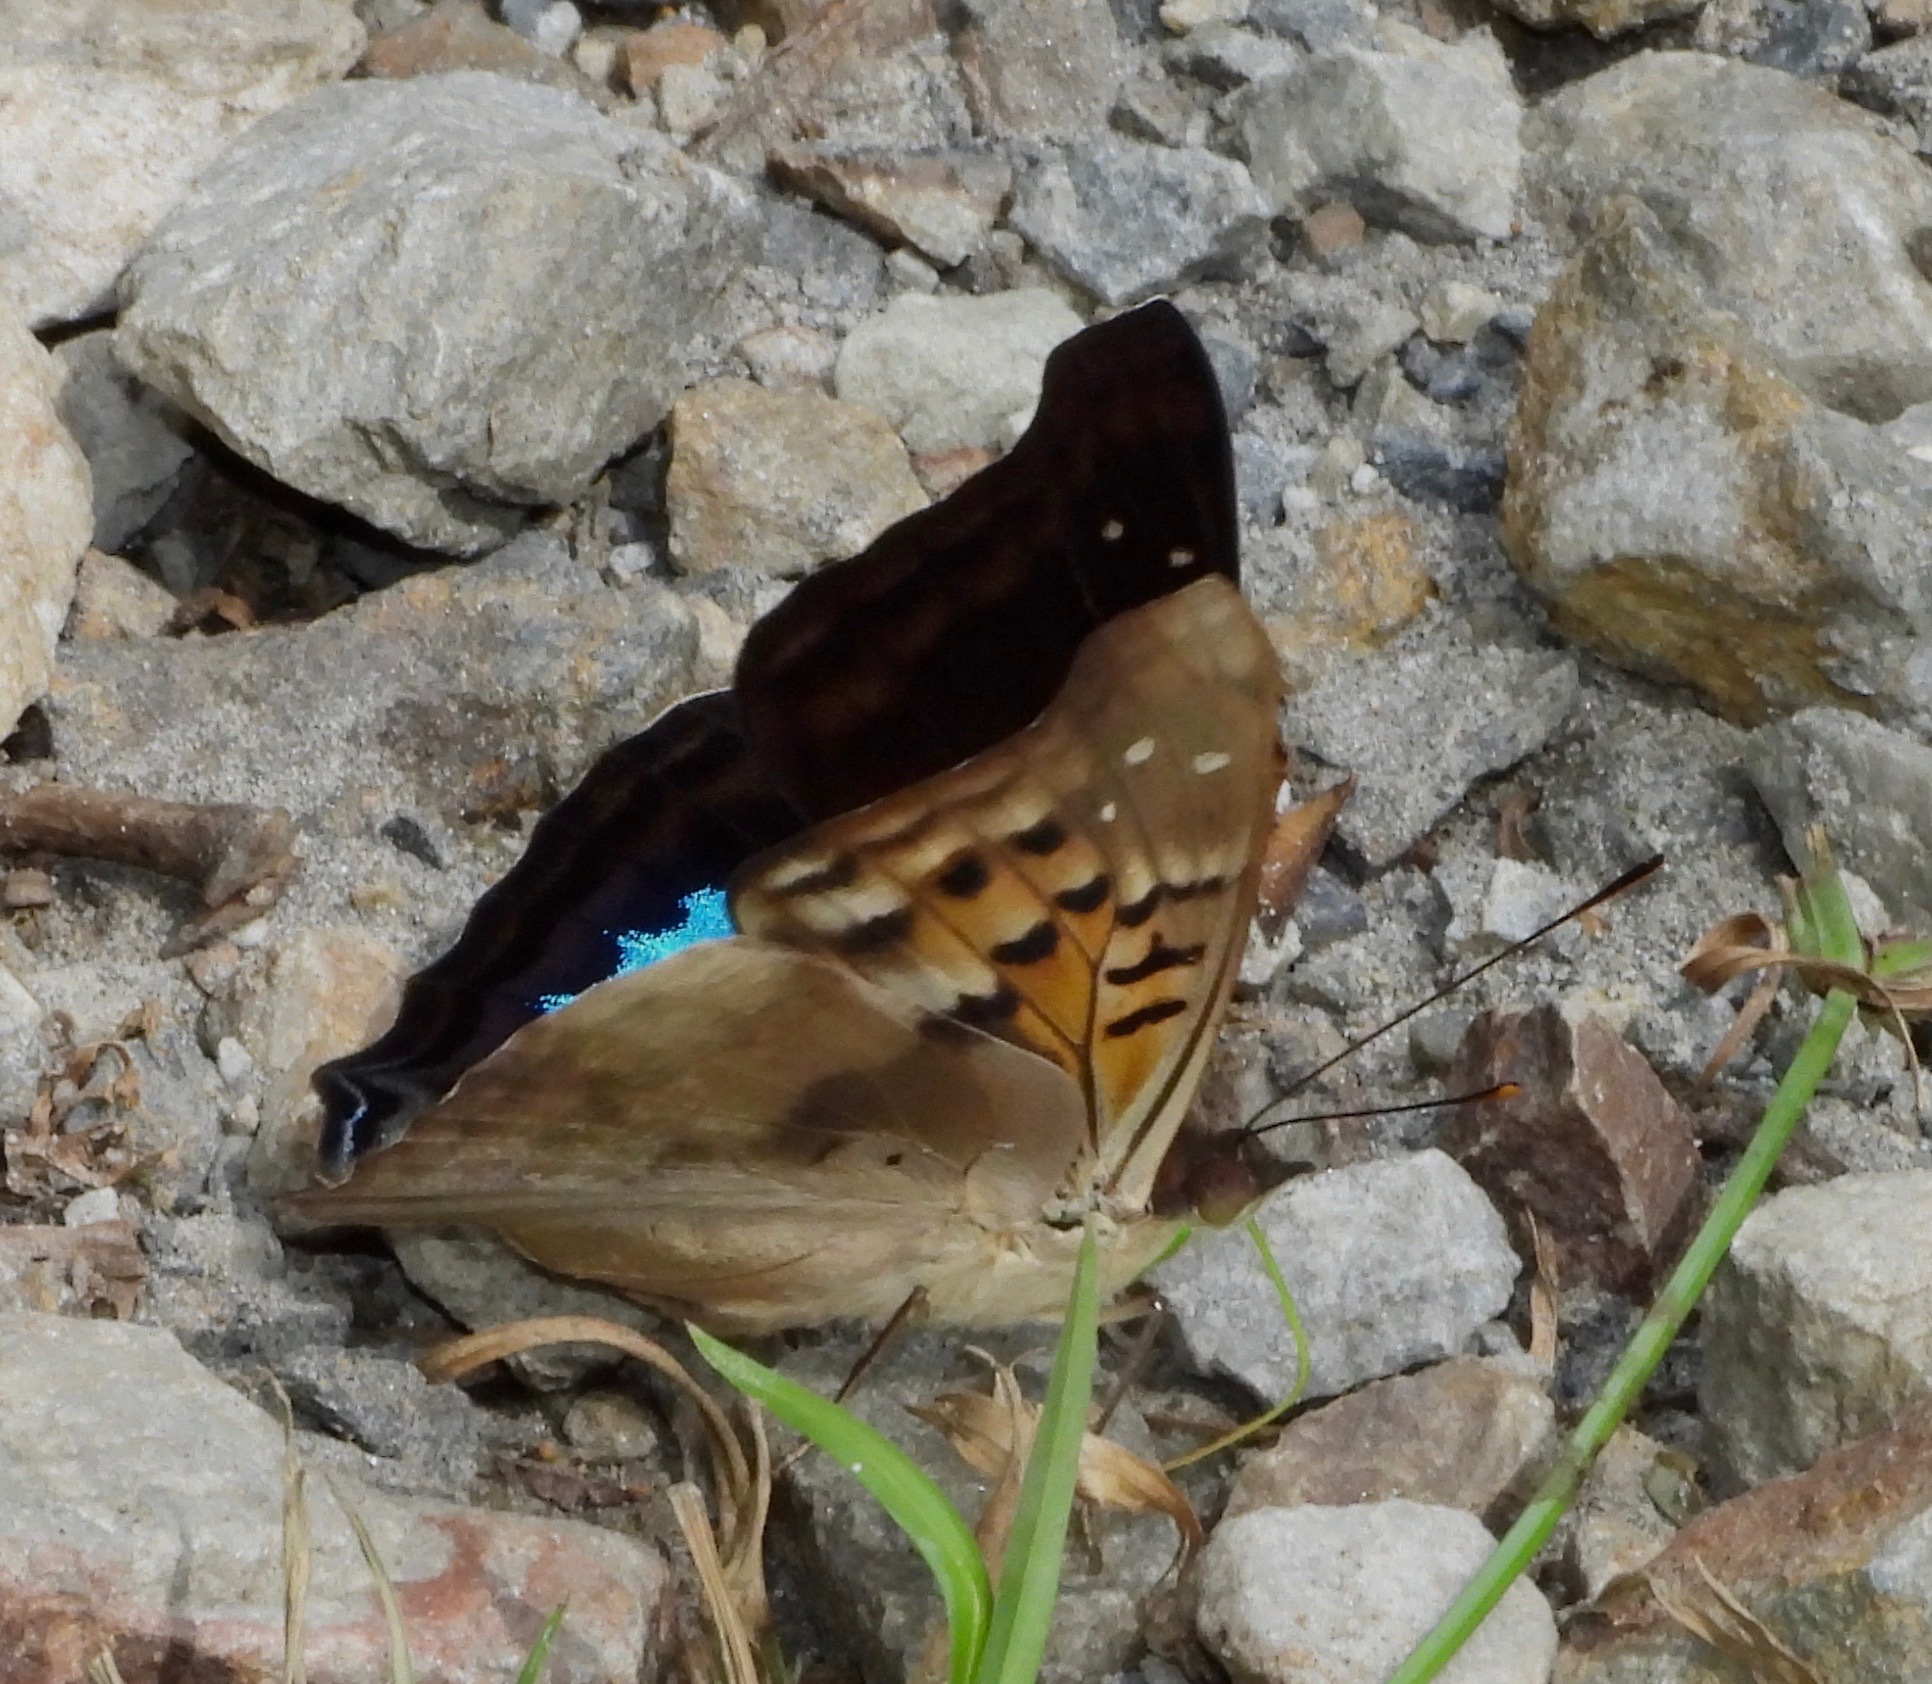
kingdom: Animalia
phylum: Arthropoda
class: Insecta
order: Lepidoptera
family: Nymphalidae
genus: Doxocopa
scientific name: Doxocopa cyane
